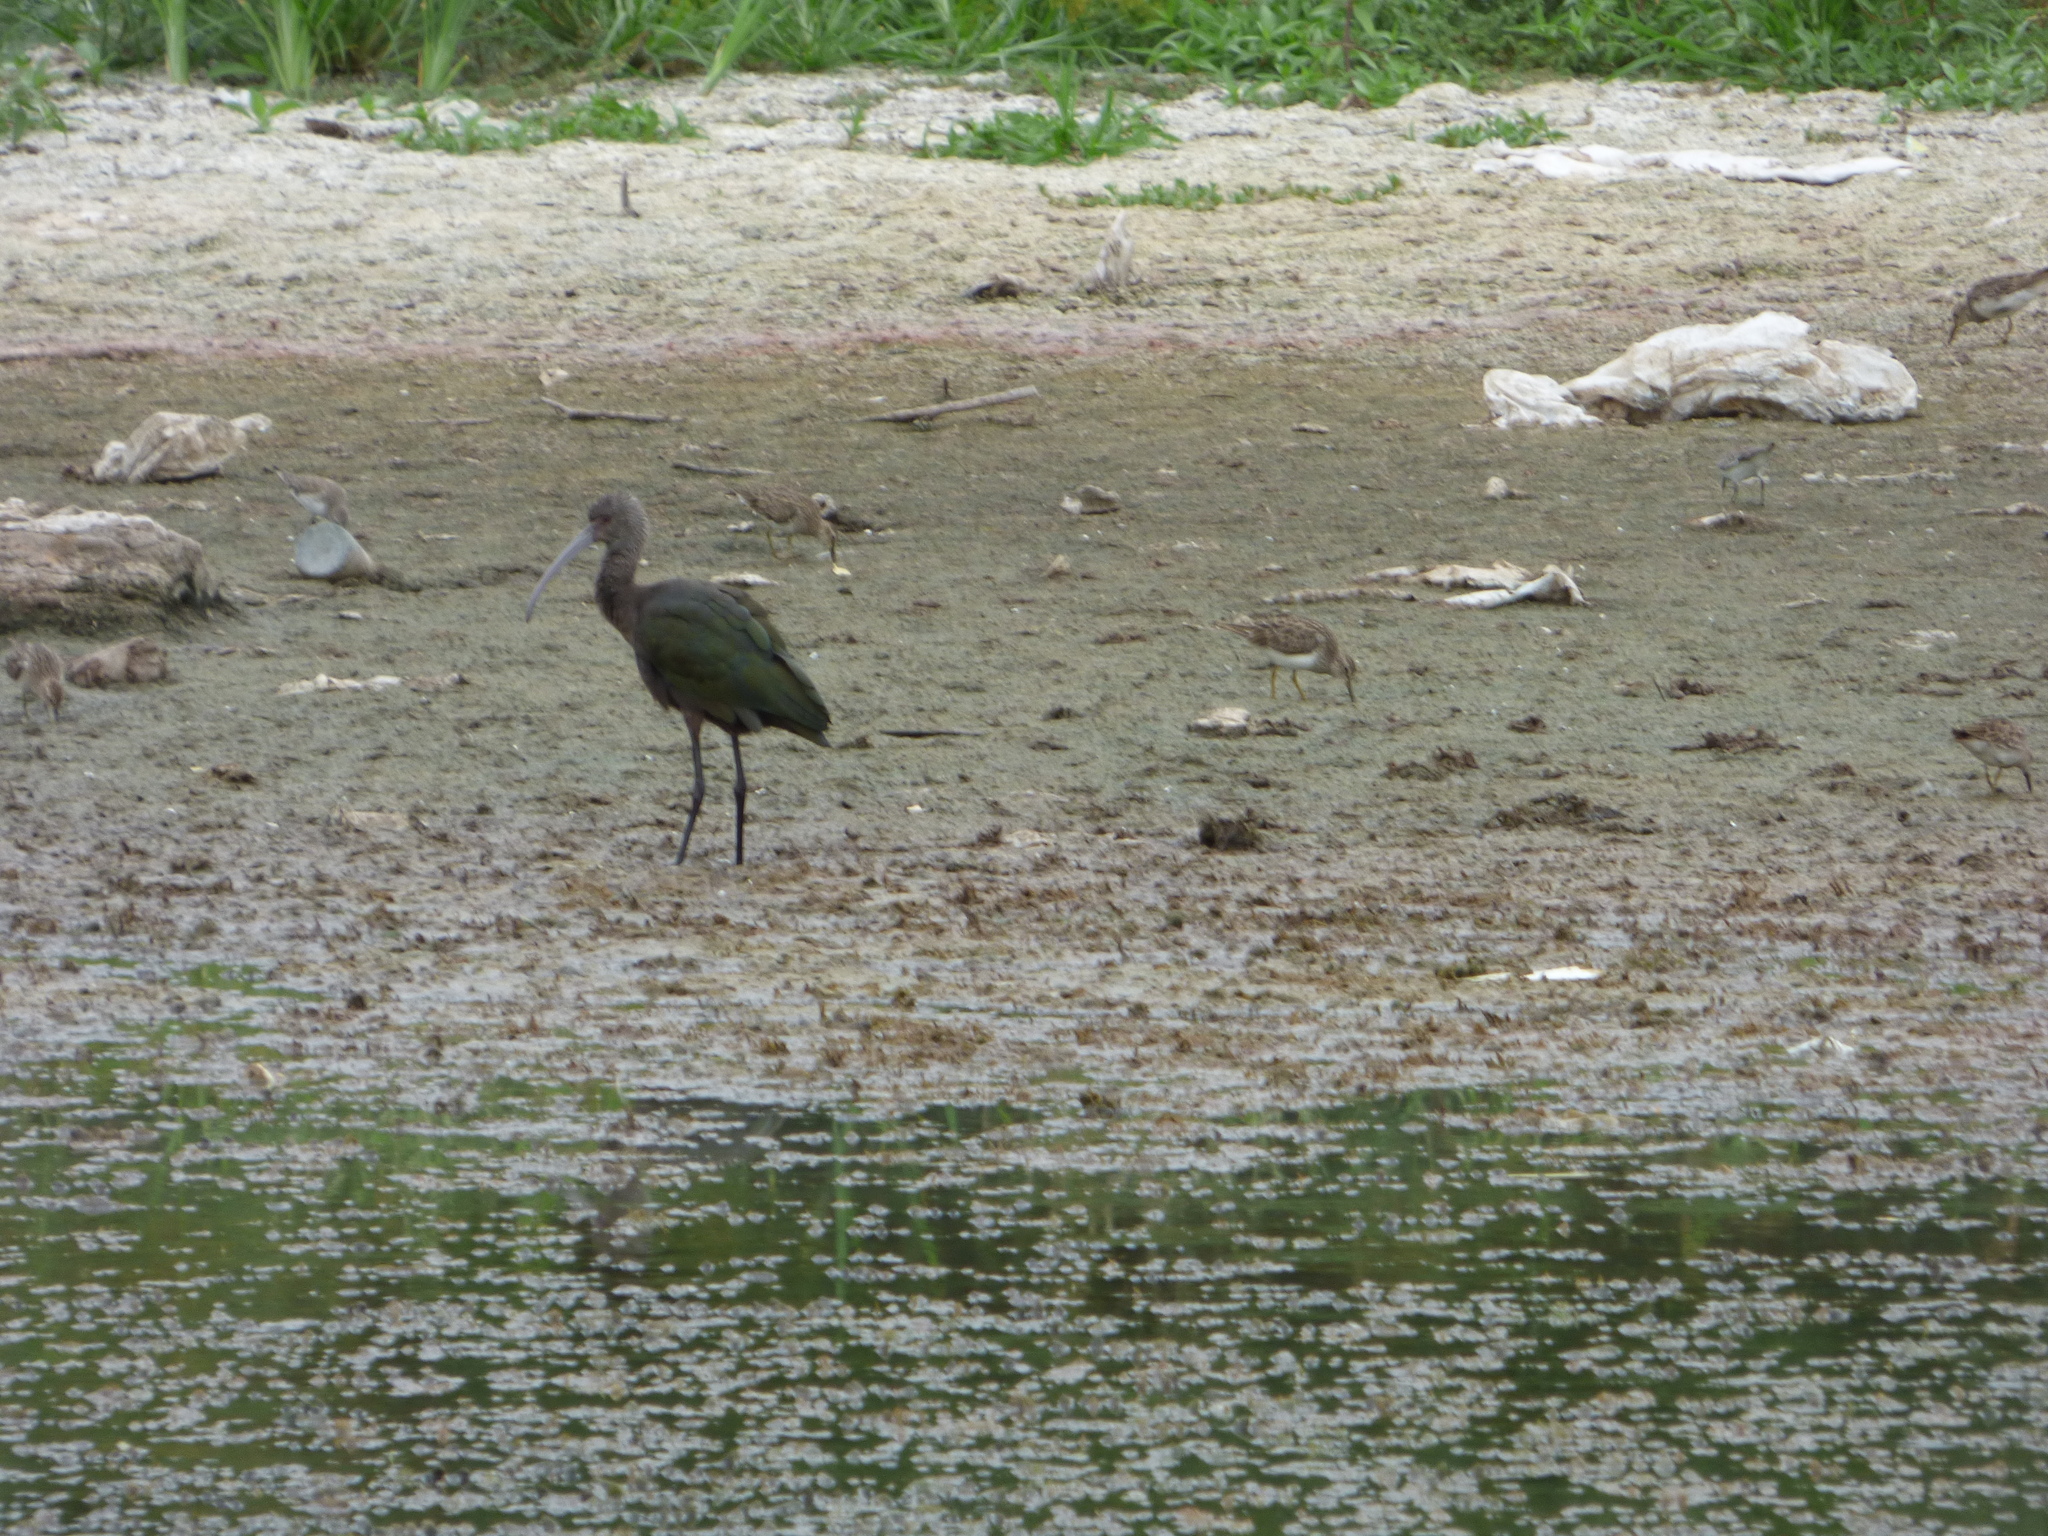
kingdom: Animalia
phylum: Chordata
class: Aves
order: Pelecaniformes
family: Threskiornithidae
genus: Plegadis
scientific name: Plegadis chihi
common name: White-faced ibis
